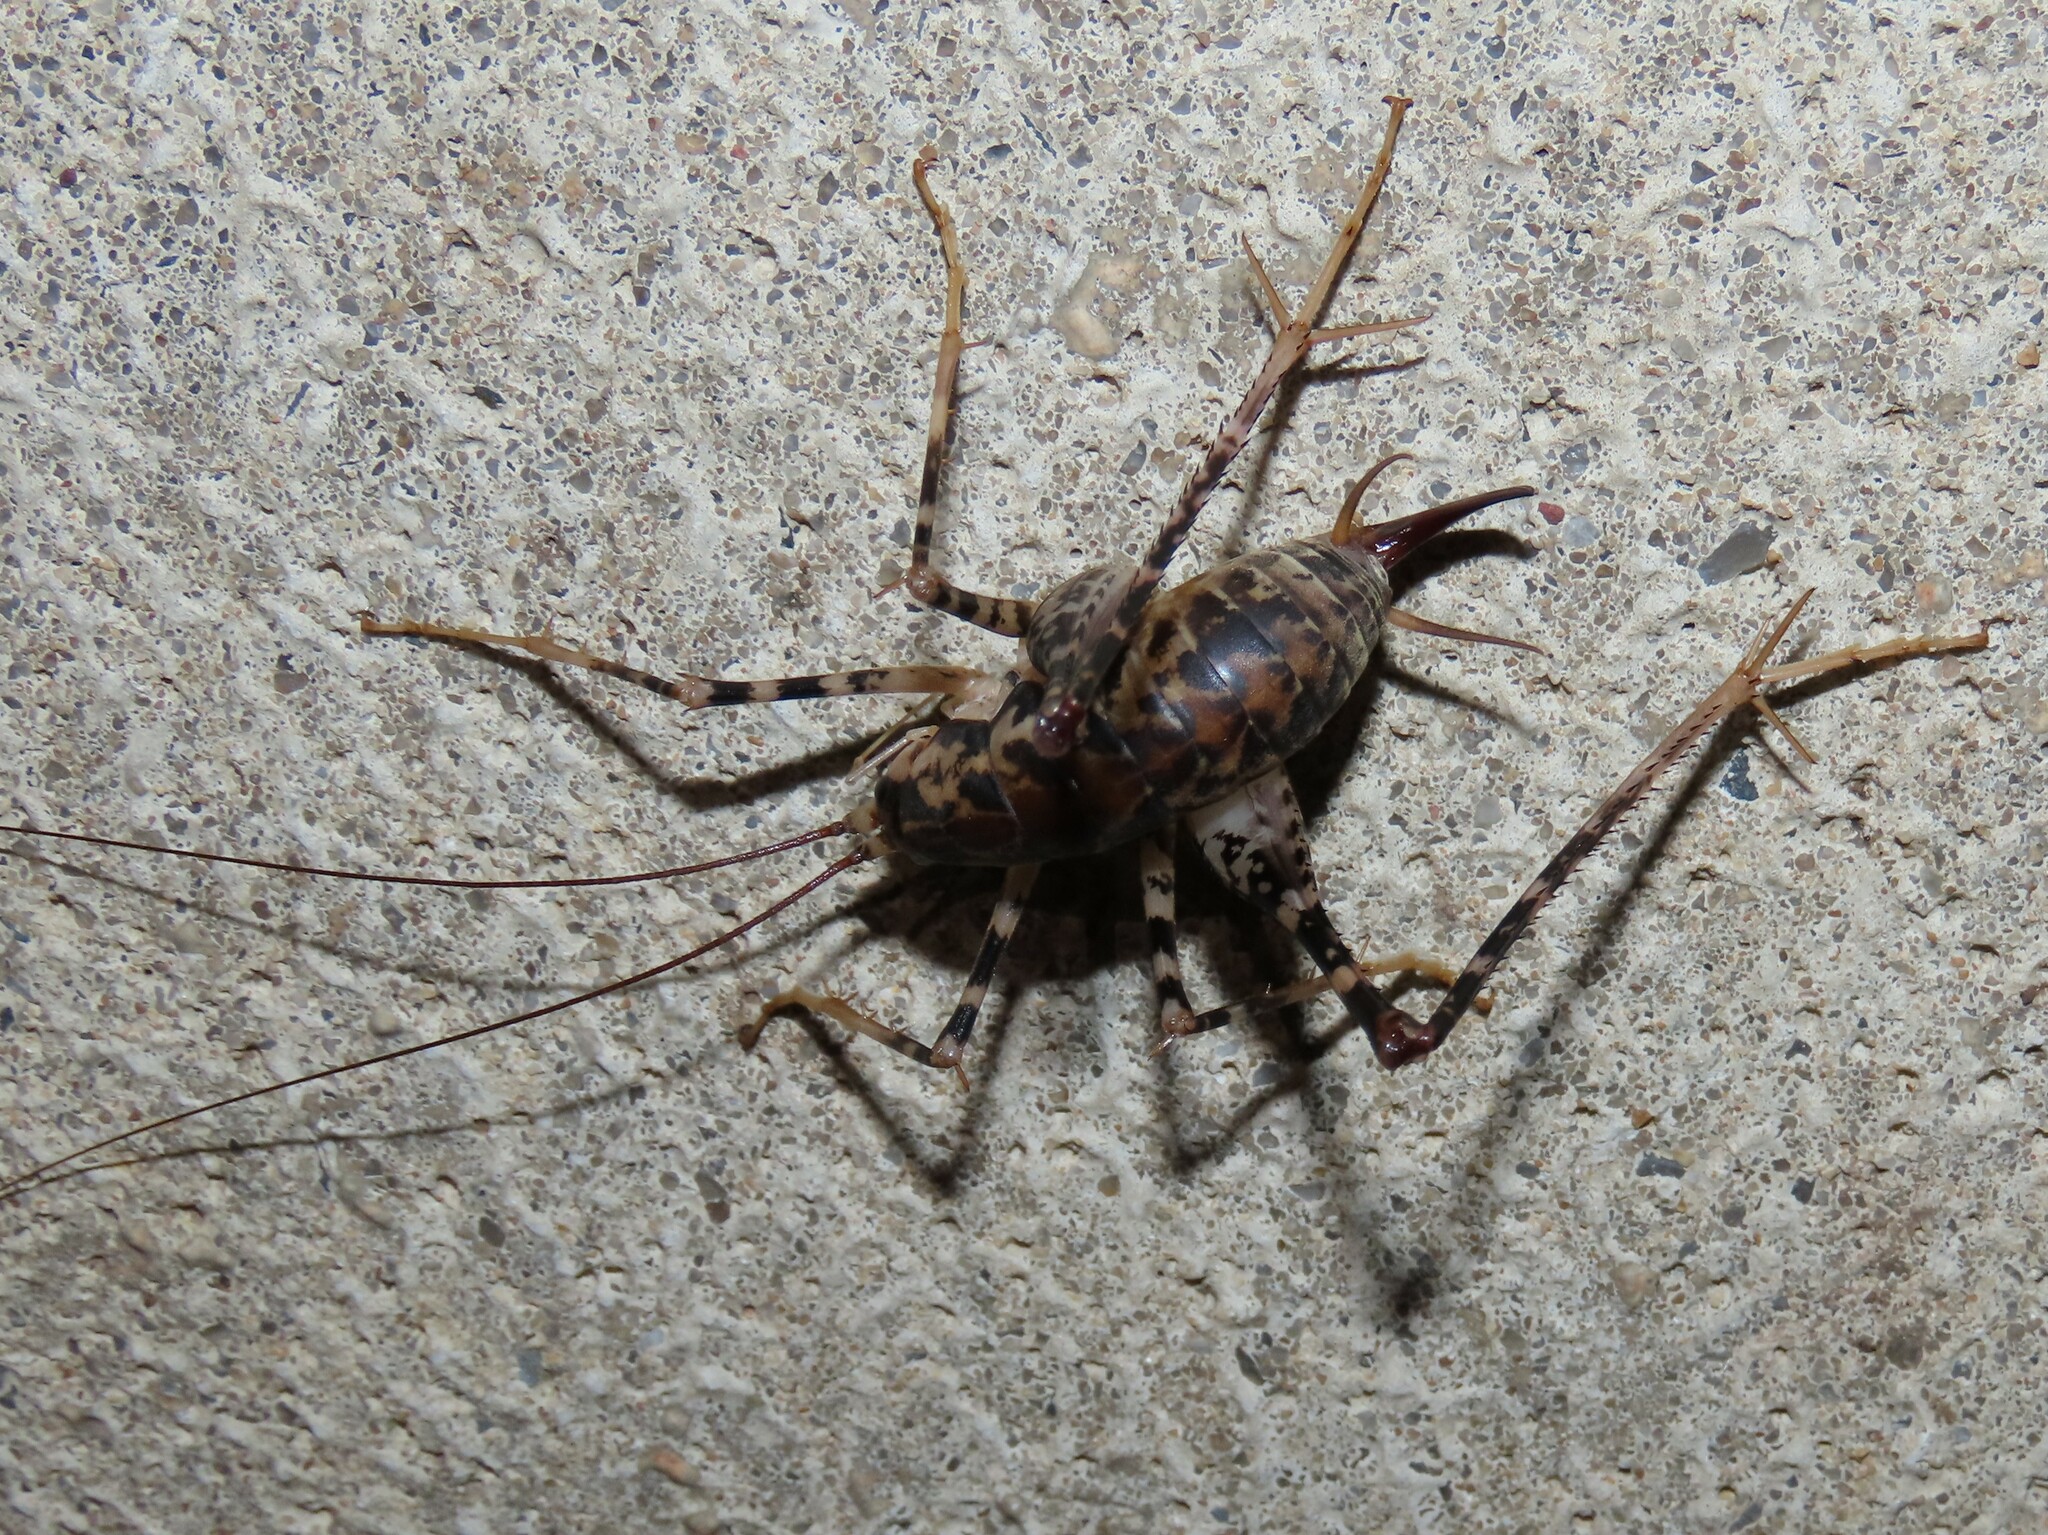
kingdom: Animalia
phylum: Arthropoda
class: Insecta
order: Orthoptera
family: Rhaphidophoridae
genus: Diestrammena
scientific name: Diestrammena japanica
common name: Japanese camel cricket
